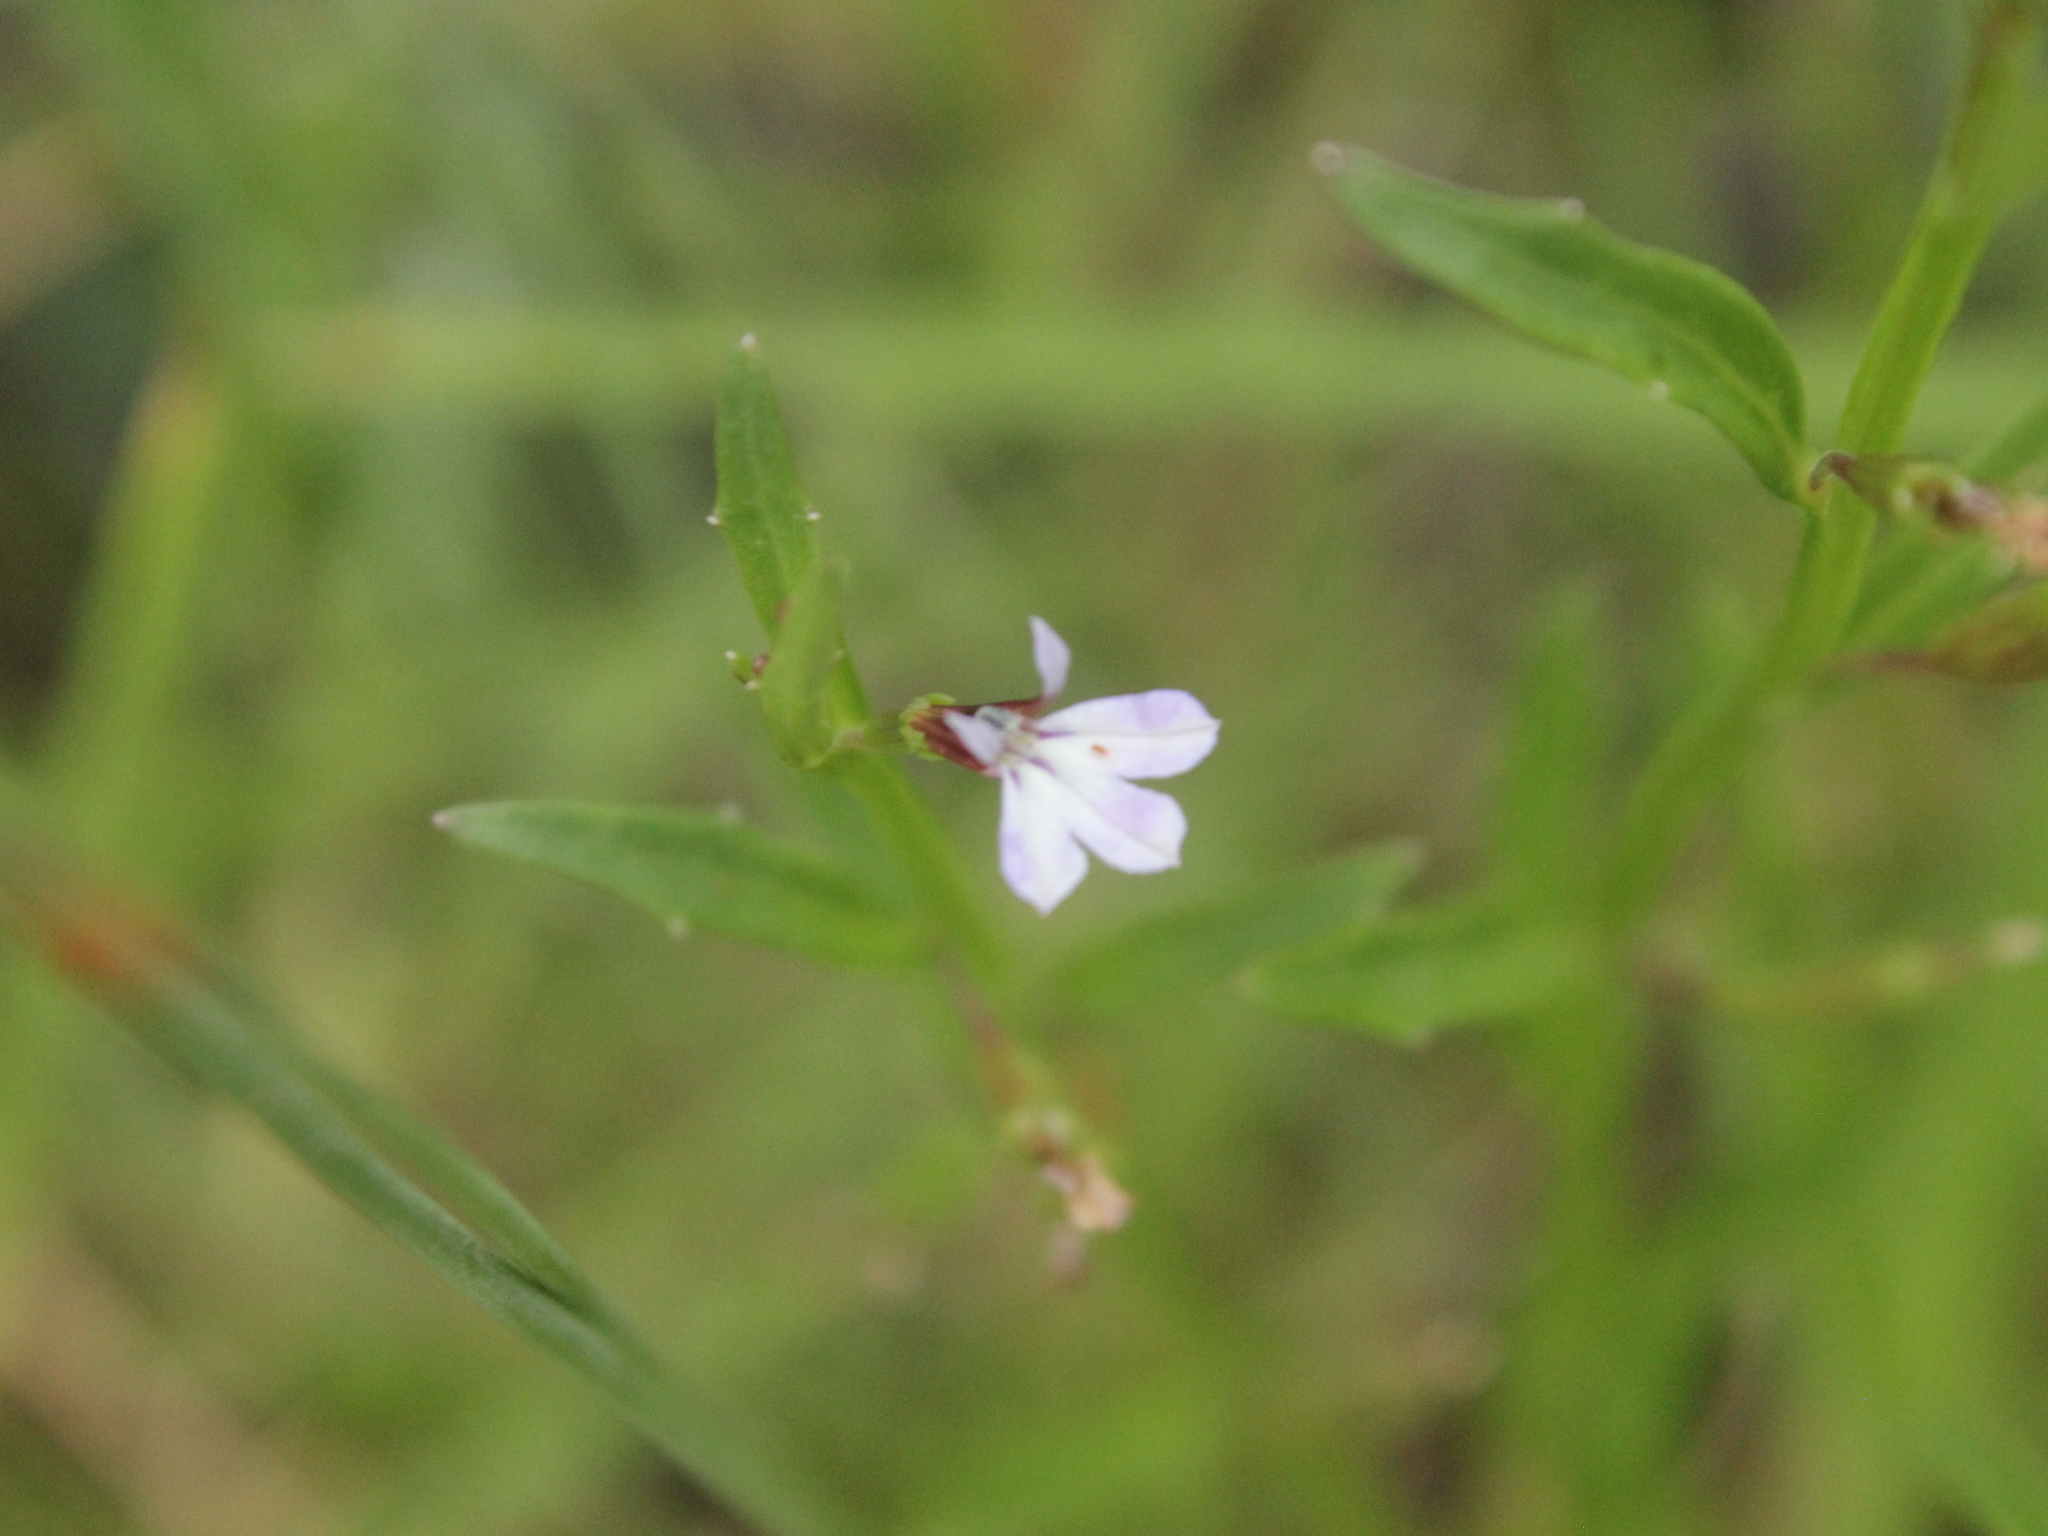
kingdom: Plantae
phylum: Tracheophyta
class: Magnoliopsida
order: Asterales
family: Campanulaceae
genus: Lobelia
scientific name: Lobelia anceps
